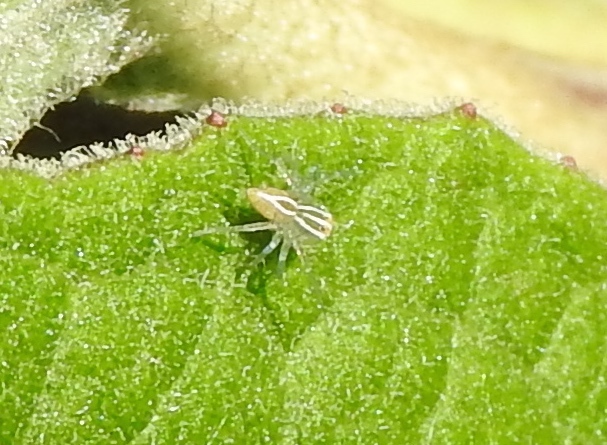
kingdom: Animalia
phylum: Arthropoda
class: Arachnida
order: Araneae
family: Oxyopidae
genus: Oxyopes
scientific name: Oxyopes
